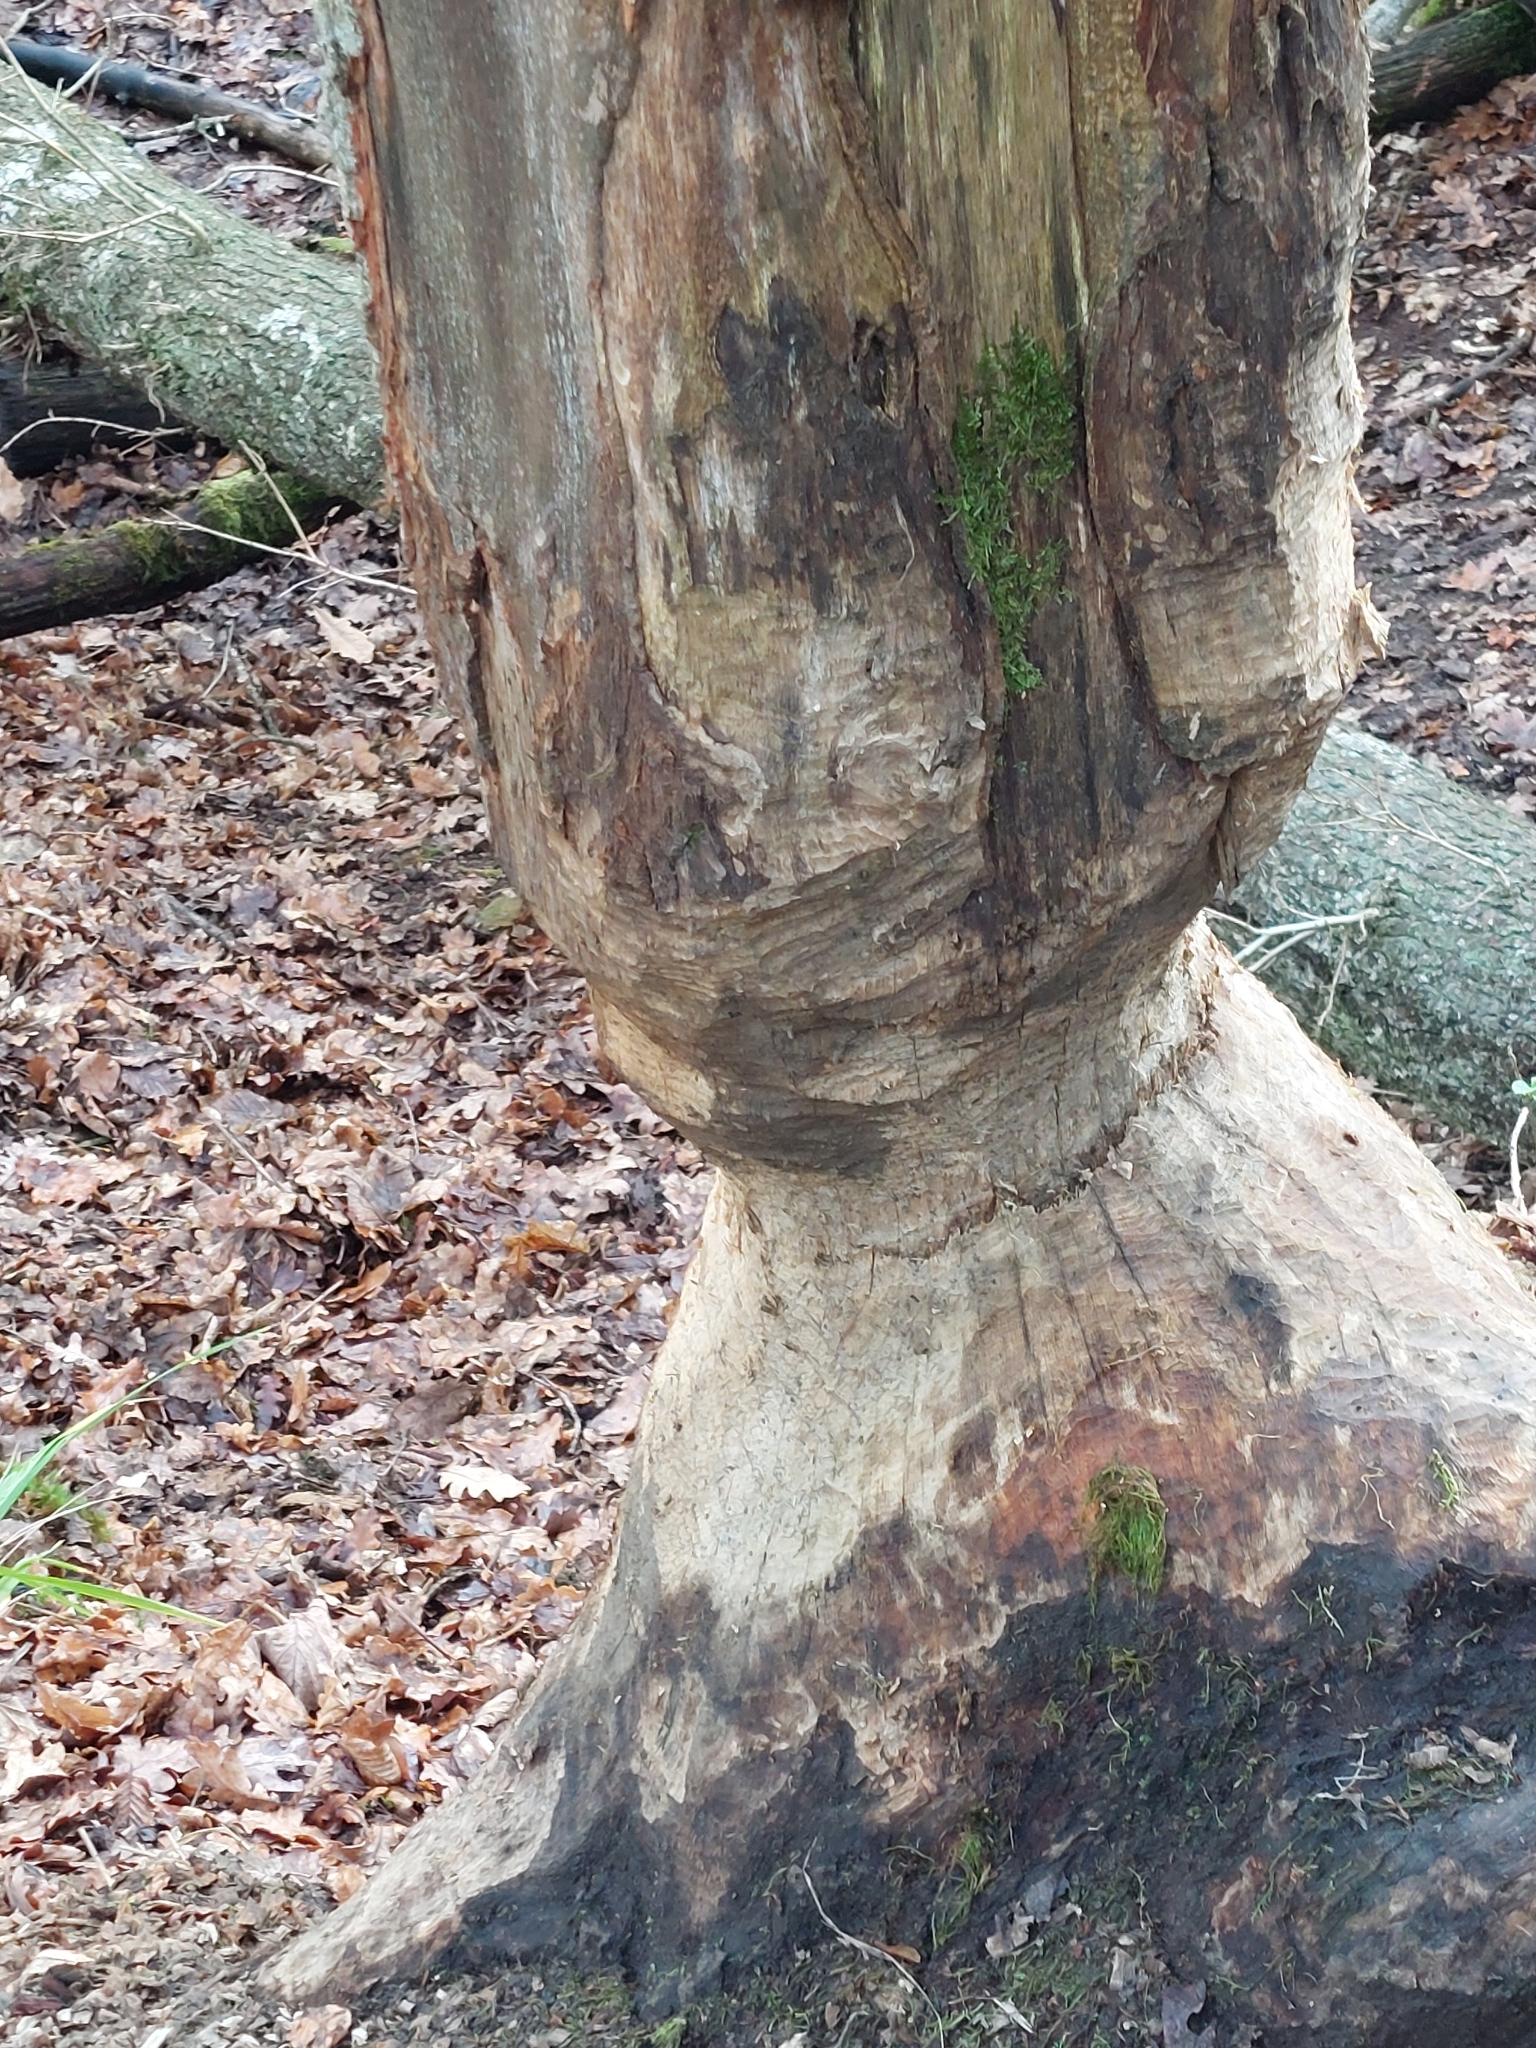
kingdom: Animalia
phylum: Chordata
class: Mammalia
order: Rodentia
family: Castoridae
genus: Castor
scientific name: Castor fiber
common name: Eurasian beaver
